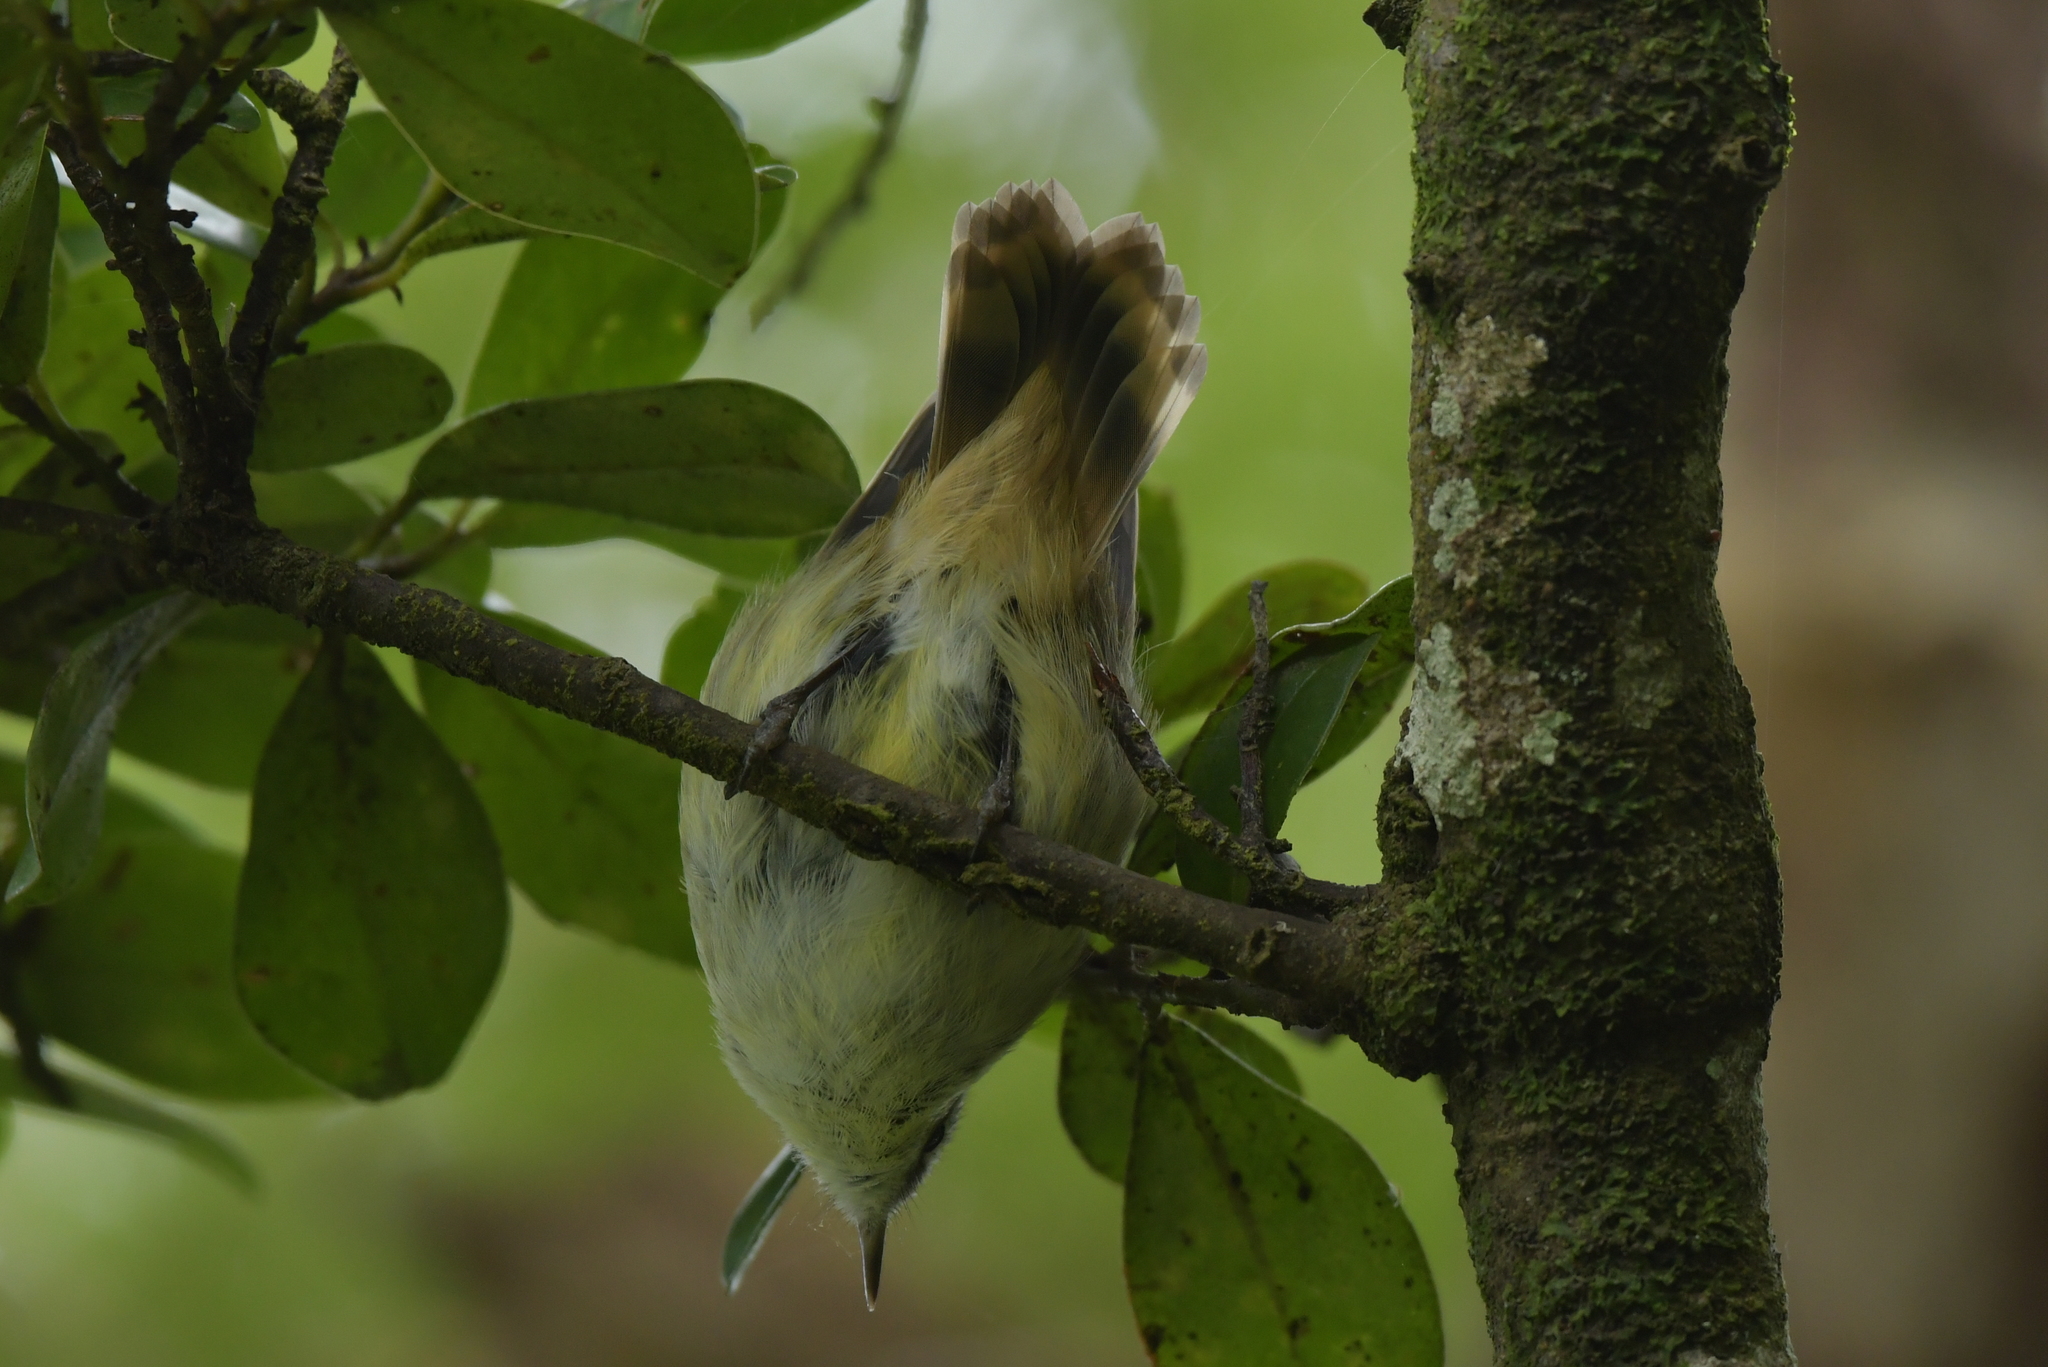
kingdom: Animalia
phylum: Chordata
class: Aves
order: Passeriformes
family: Acanthizidae
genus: Gerygone
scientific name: Gerygone albofrontata
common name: Chatham gerygone
